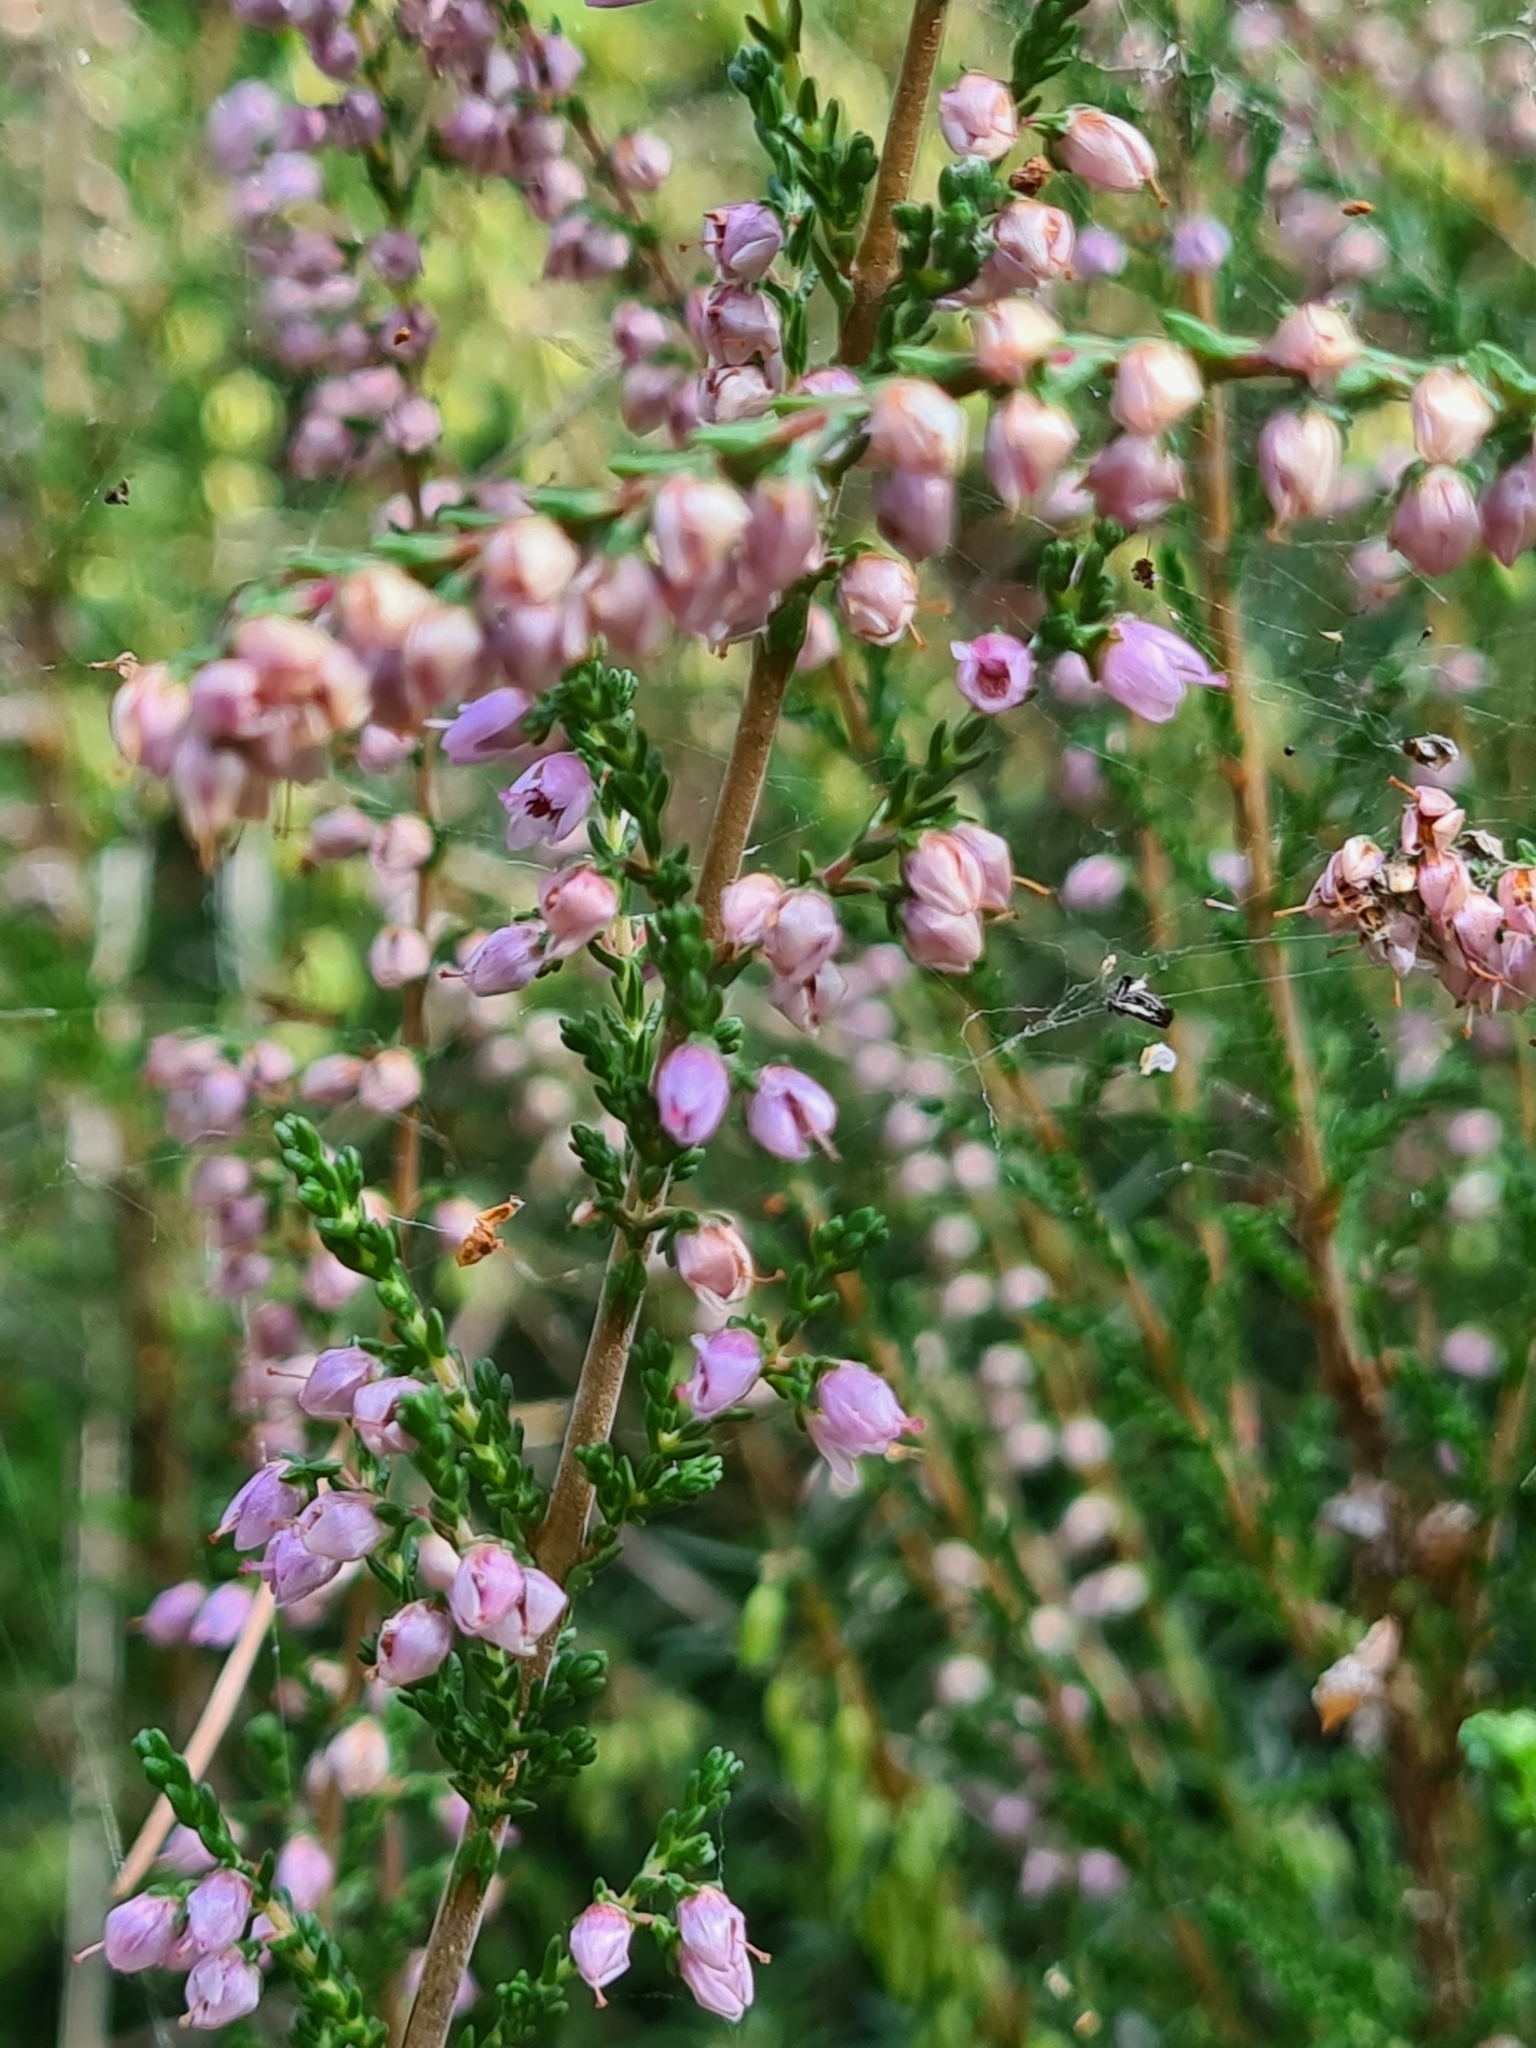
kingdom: Plantae
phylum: Tracheophyta
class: Magnoliopsida
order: Ericales
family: Ericaceae
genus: Calluna
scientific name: Calluna vulgaris
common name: Heather
